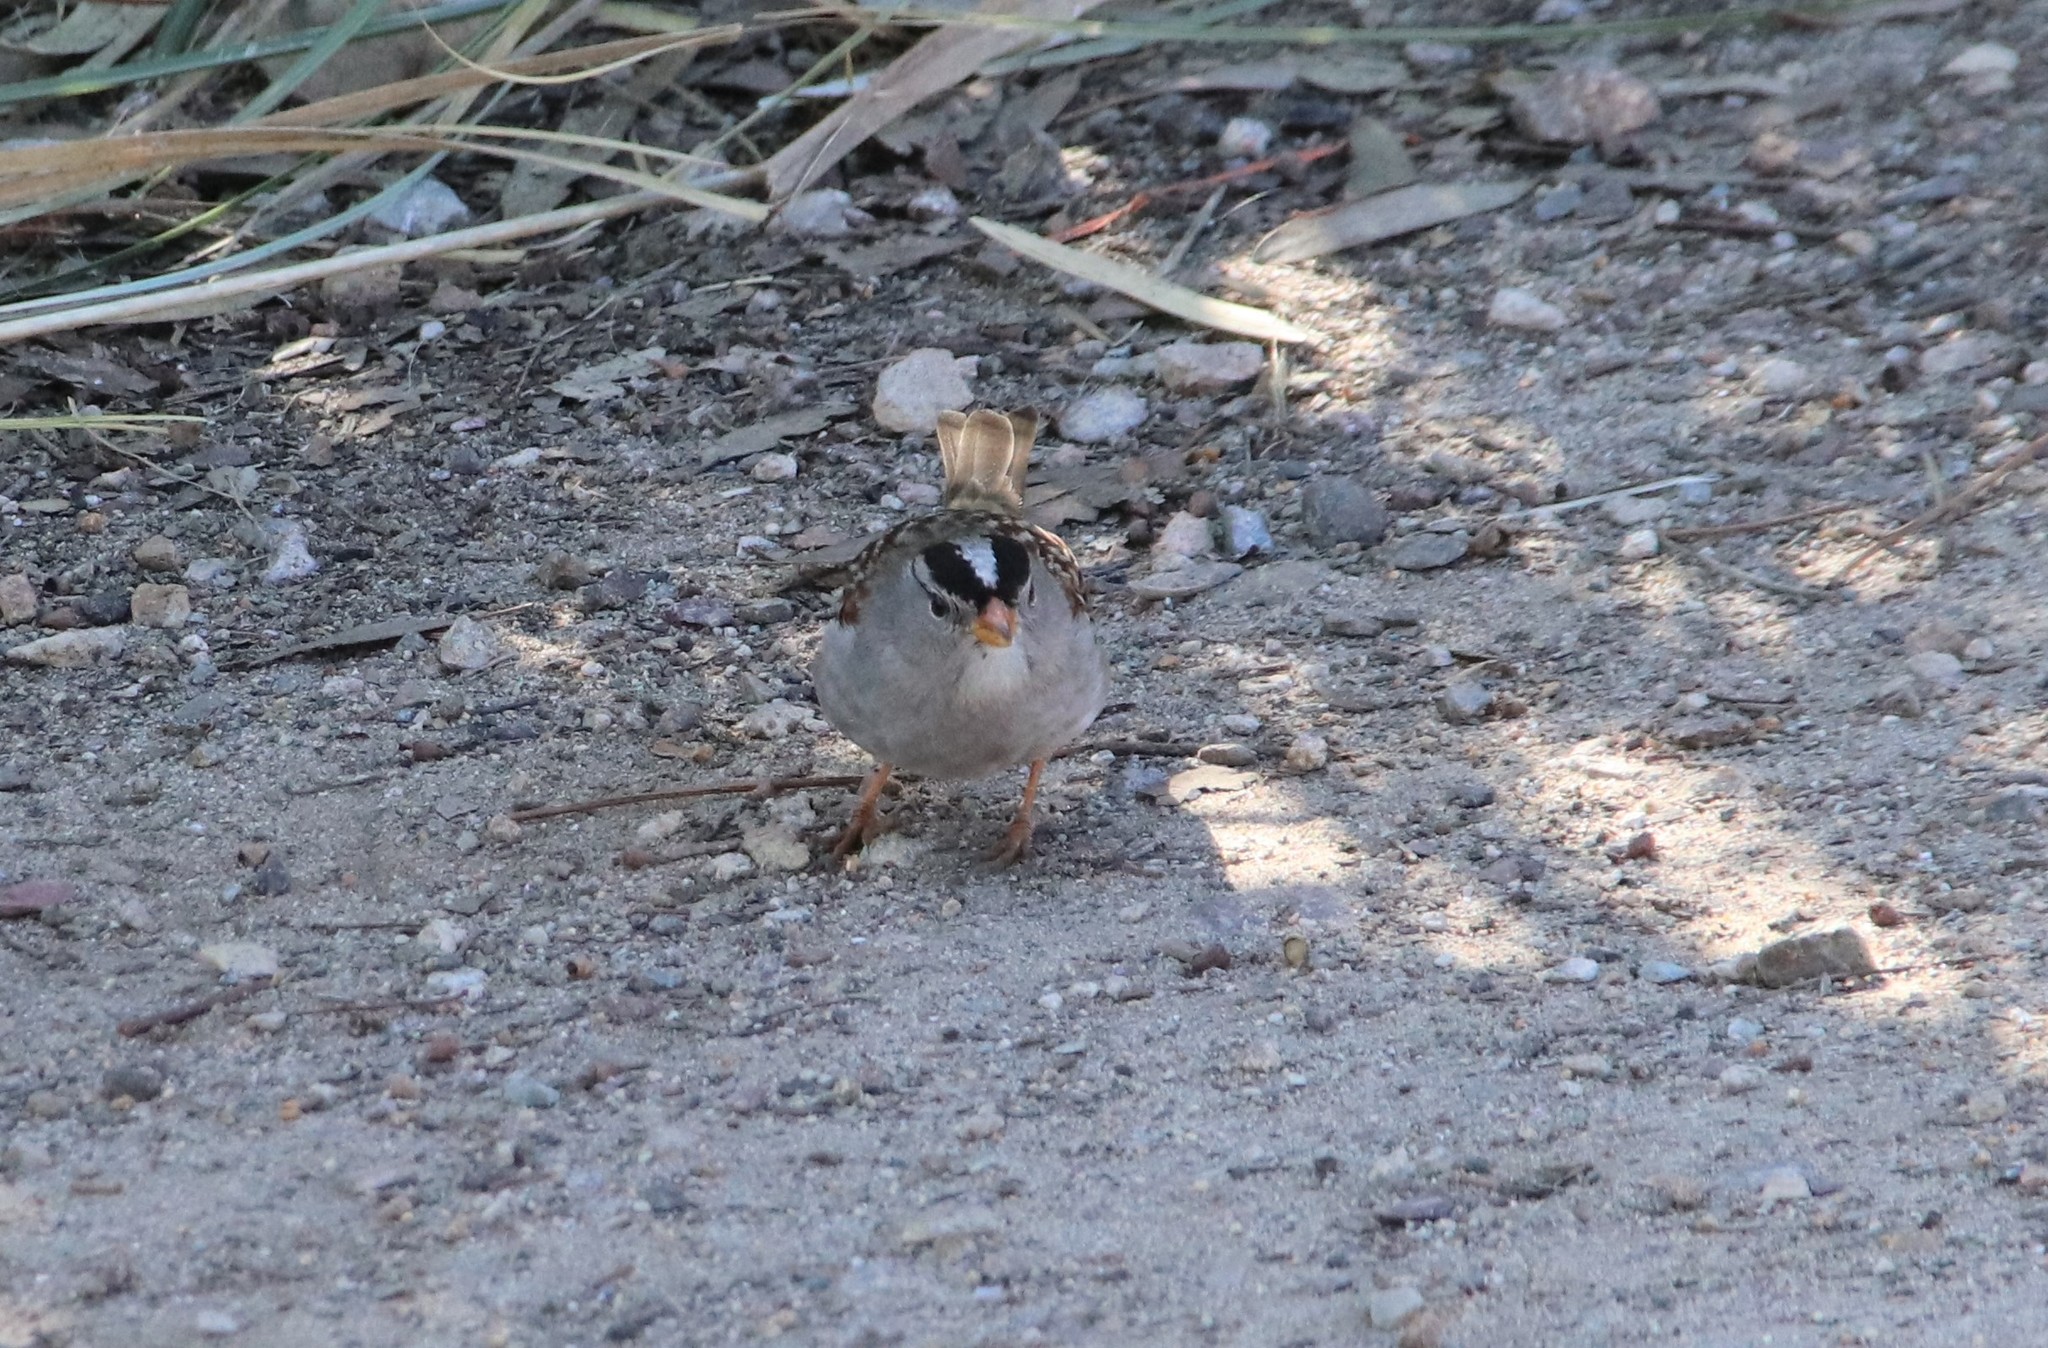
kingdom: Animalia
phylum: Chordata
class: Aves
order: Passeriformes
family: Passerellidae
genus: Zonotrichia
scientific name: Zonotrichia leucophrys
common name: White-crowned sparrow
